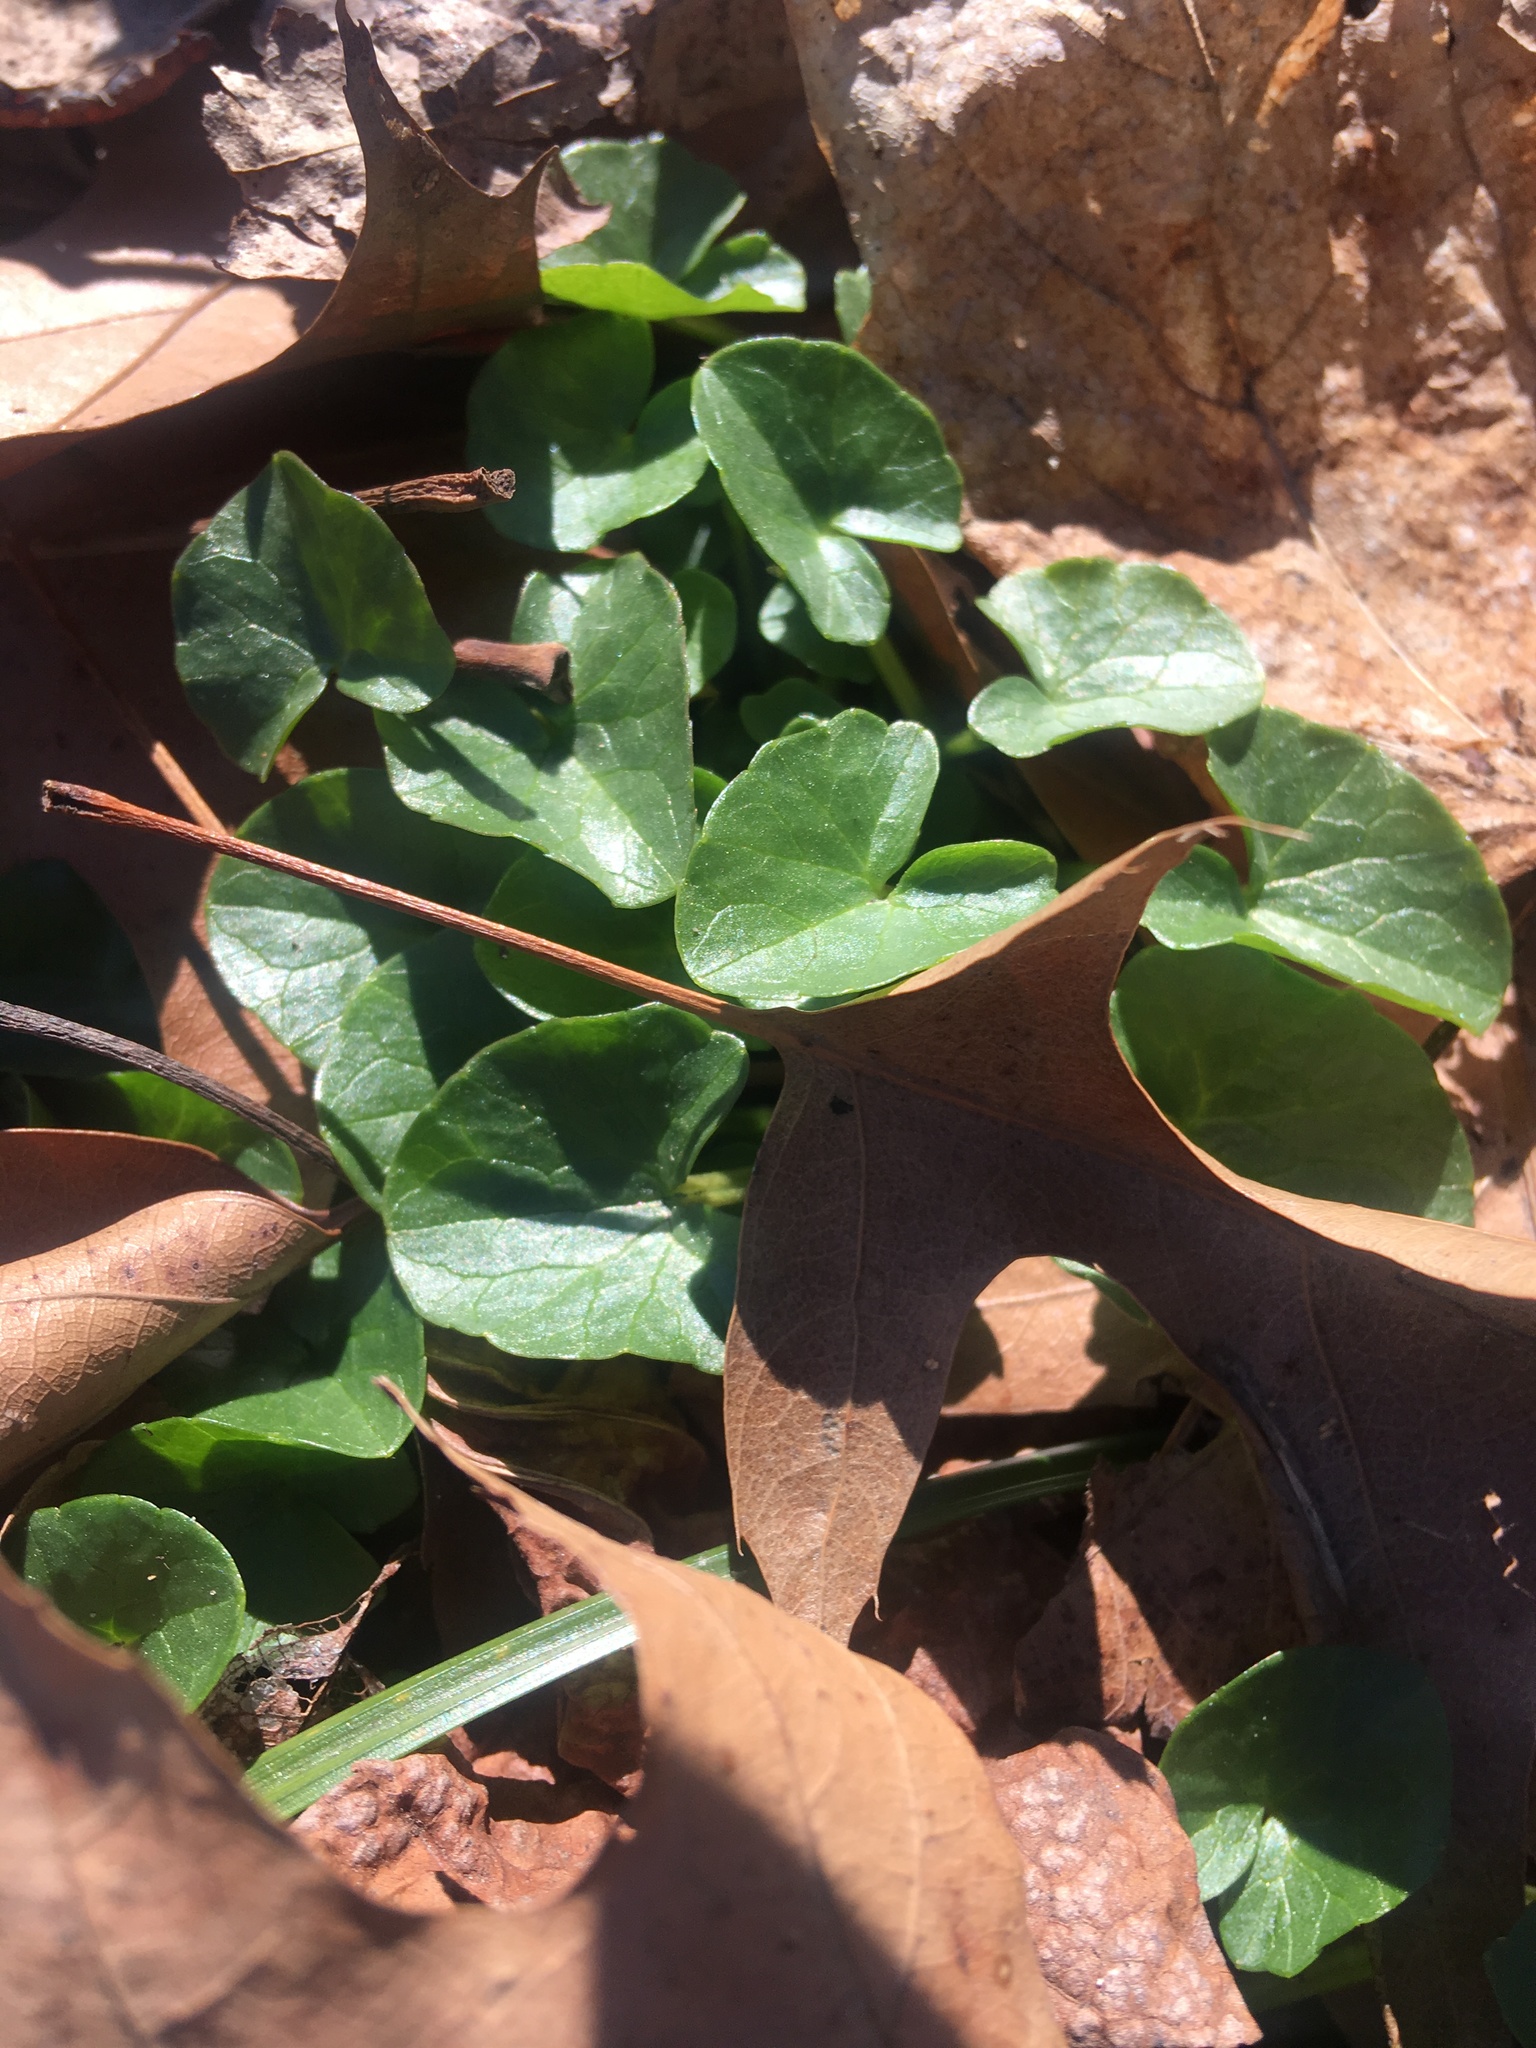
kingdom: Plantae
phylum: Tracheophyta
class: Magnoliopsida
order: Ranunculales
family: Ranunculaceae
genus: Ficaria
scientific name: Ficaria verna
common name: Lesser celandine
